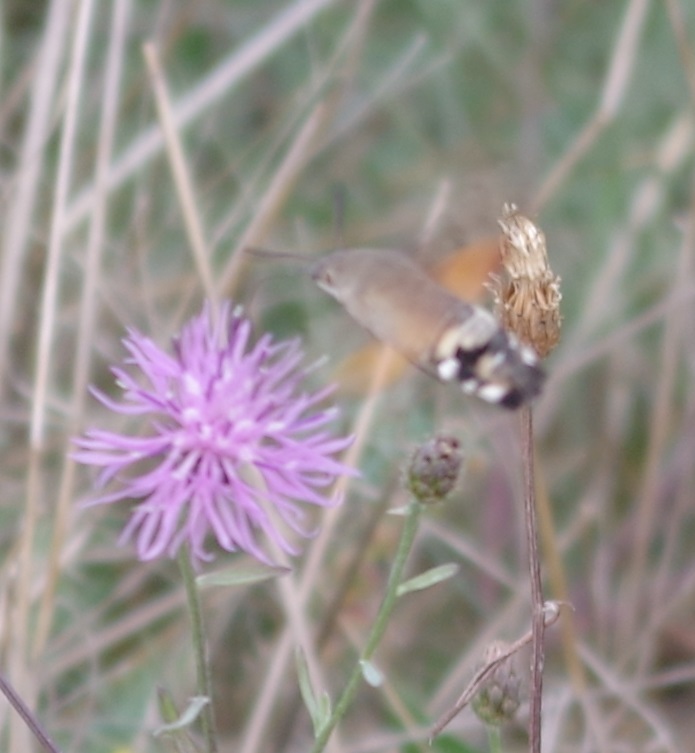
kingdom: Animalia
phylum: Arthropoda
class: Insecta
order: Lepidoptera
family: Sphingidae
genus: Macroglossum
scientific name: Macroglossum stellatarum
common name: Humming-bird hawk-moth
